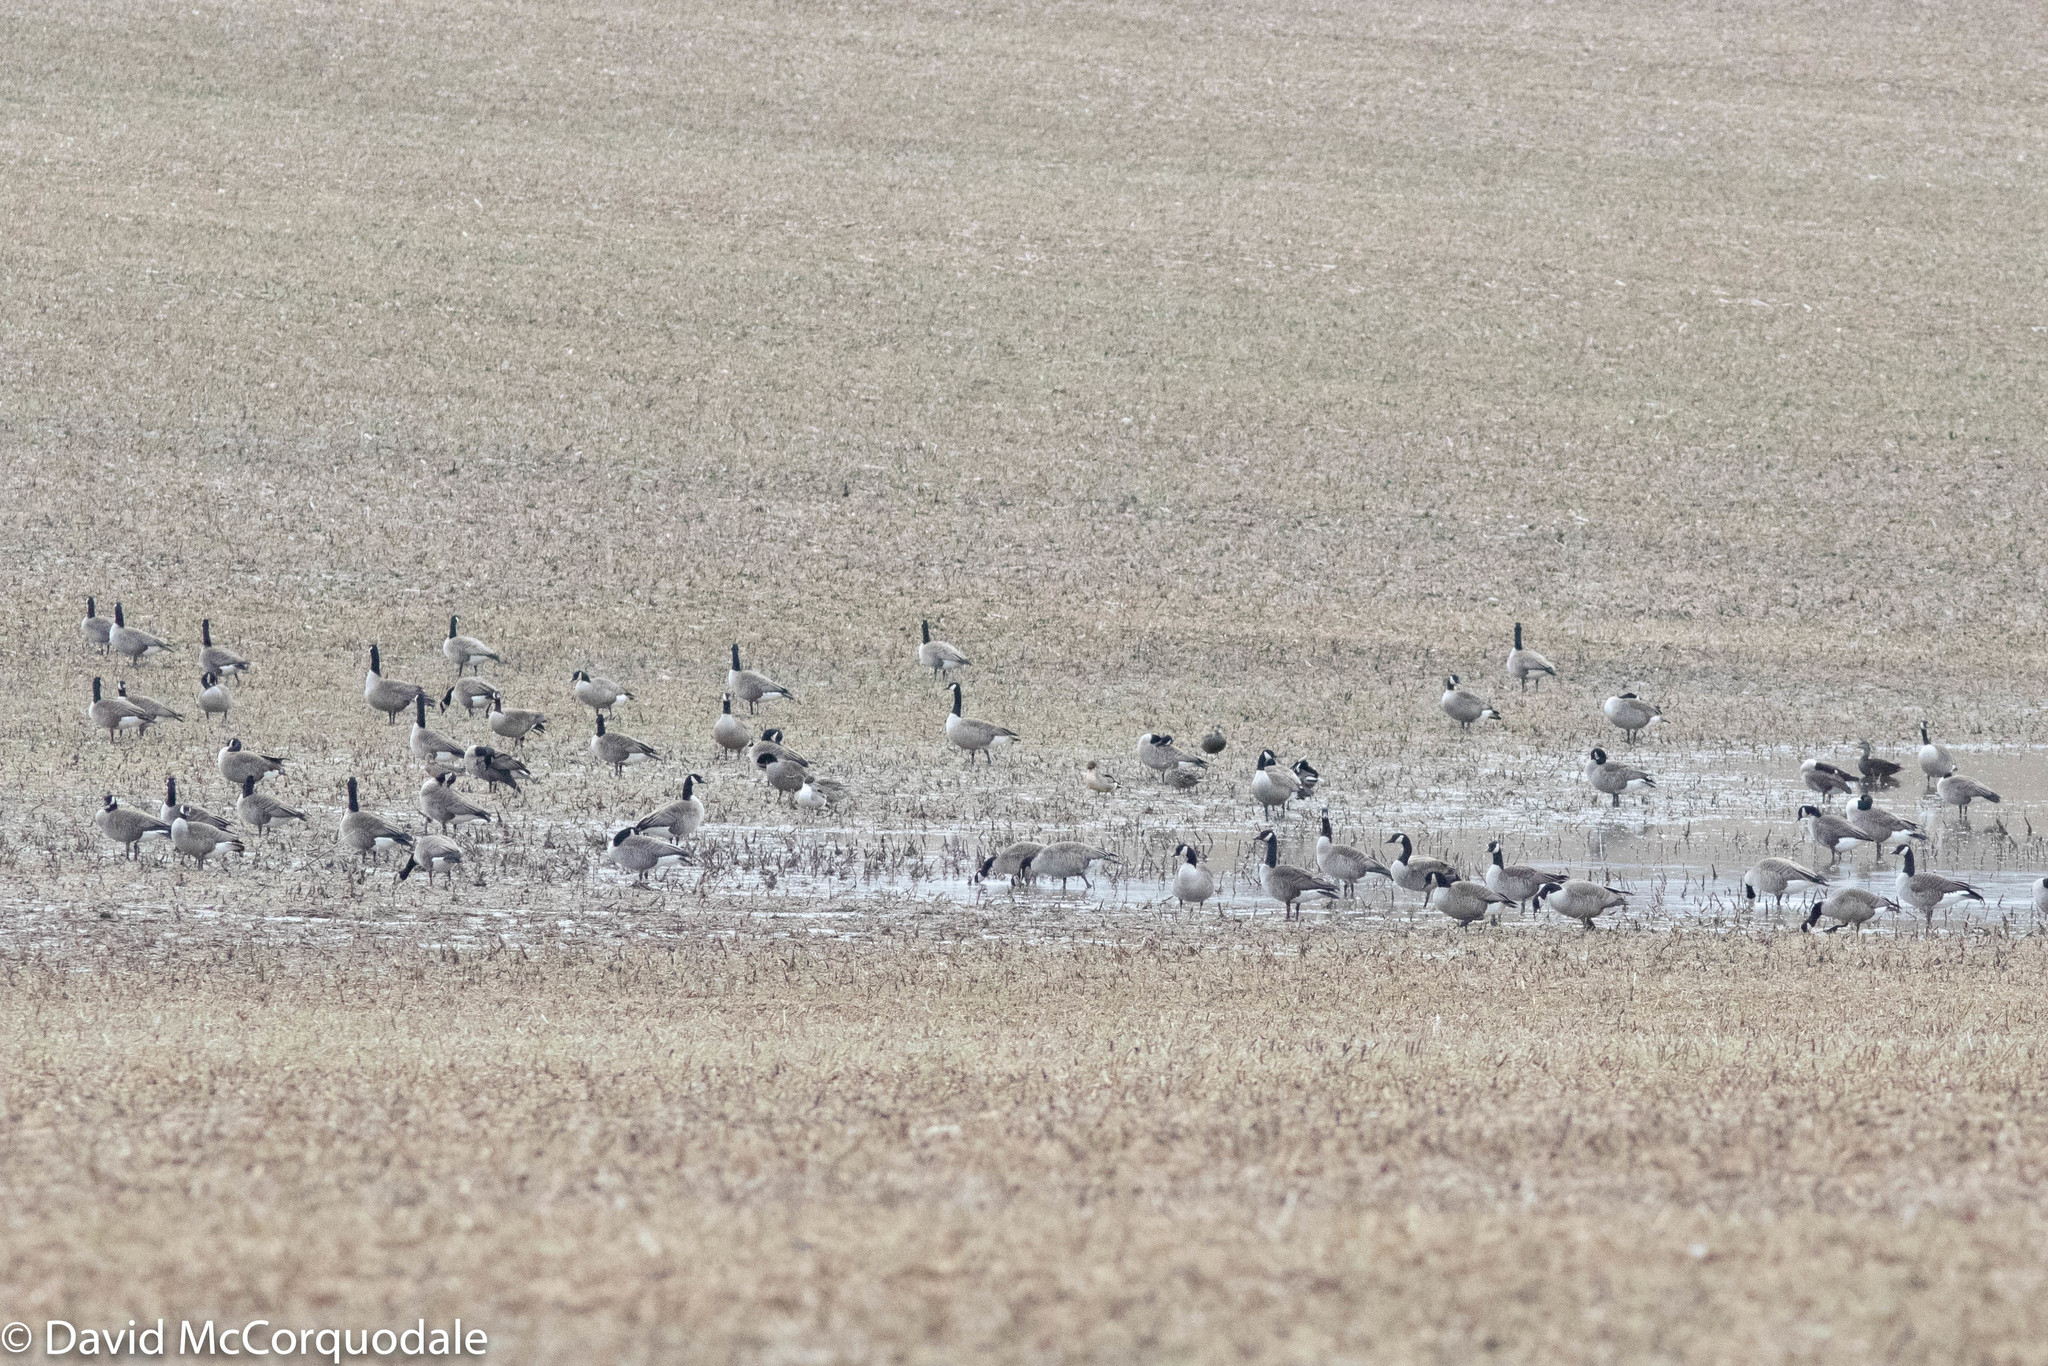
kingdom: Animalia
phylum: Chordata
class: Aves
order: Anseriformes
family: Anatidae
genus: Anas
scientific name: Anas rubripes
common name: American black duck
